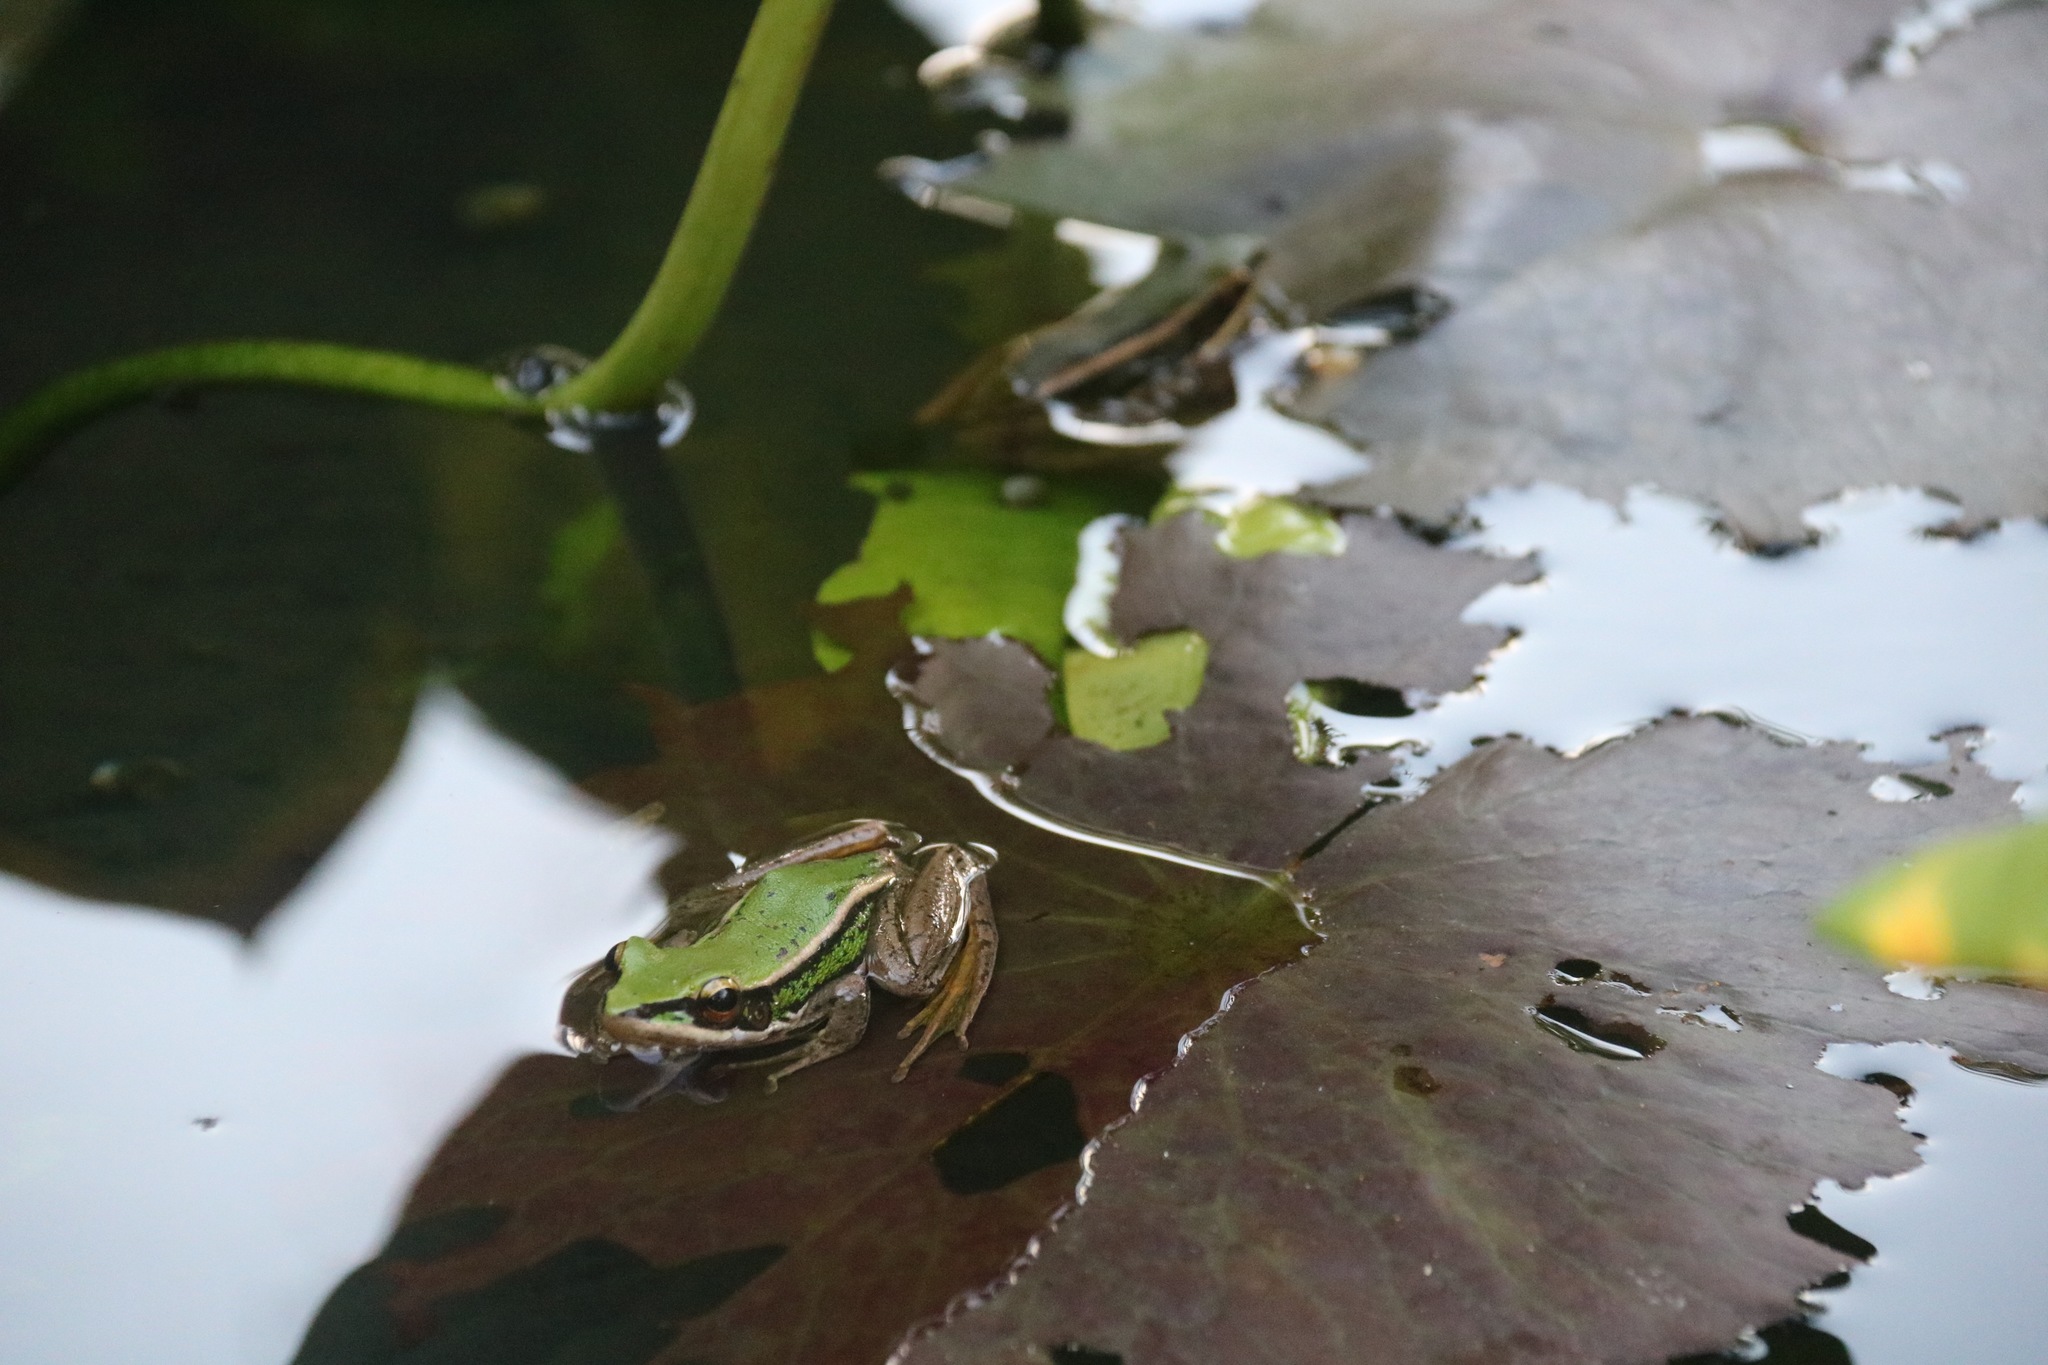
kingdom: Animalia
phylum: Chordata
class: Amphibia
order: Anura
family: Ranidae
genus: Hylarana
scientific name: Hylarana erythraea
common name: Common green frog/green paddy frog/leaf frog
